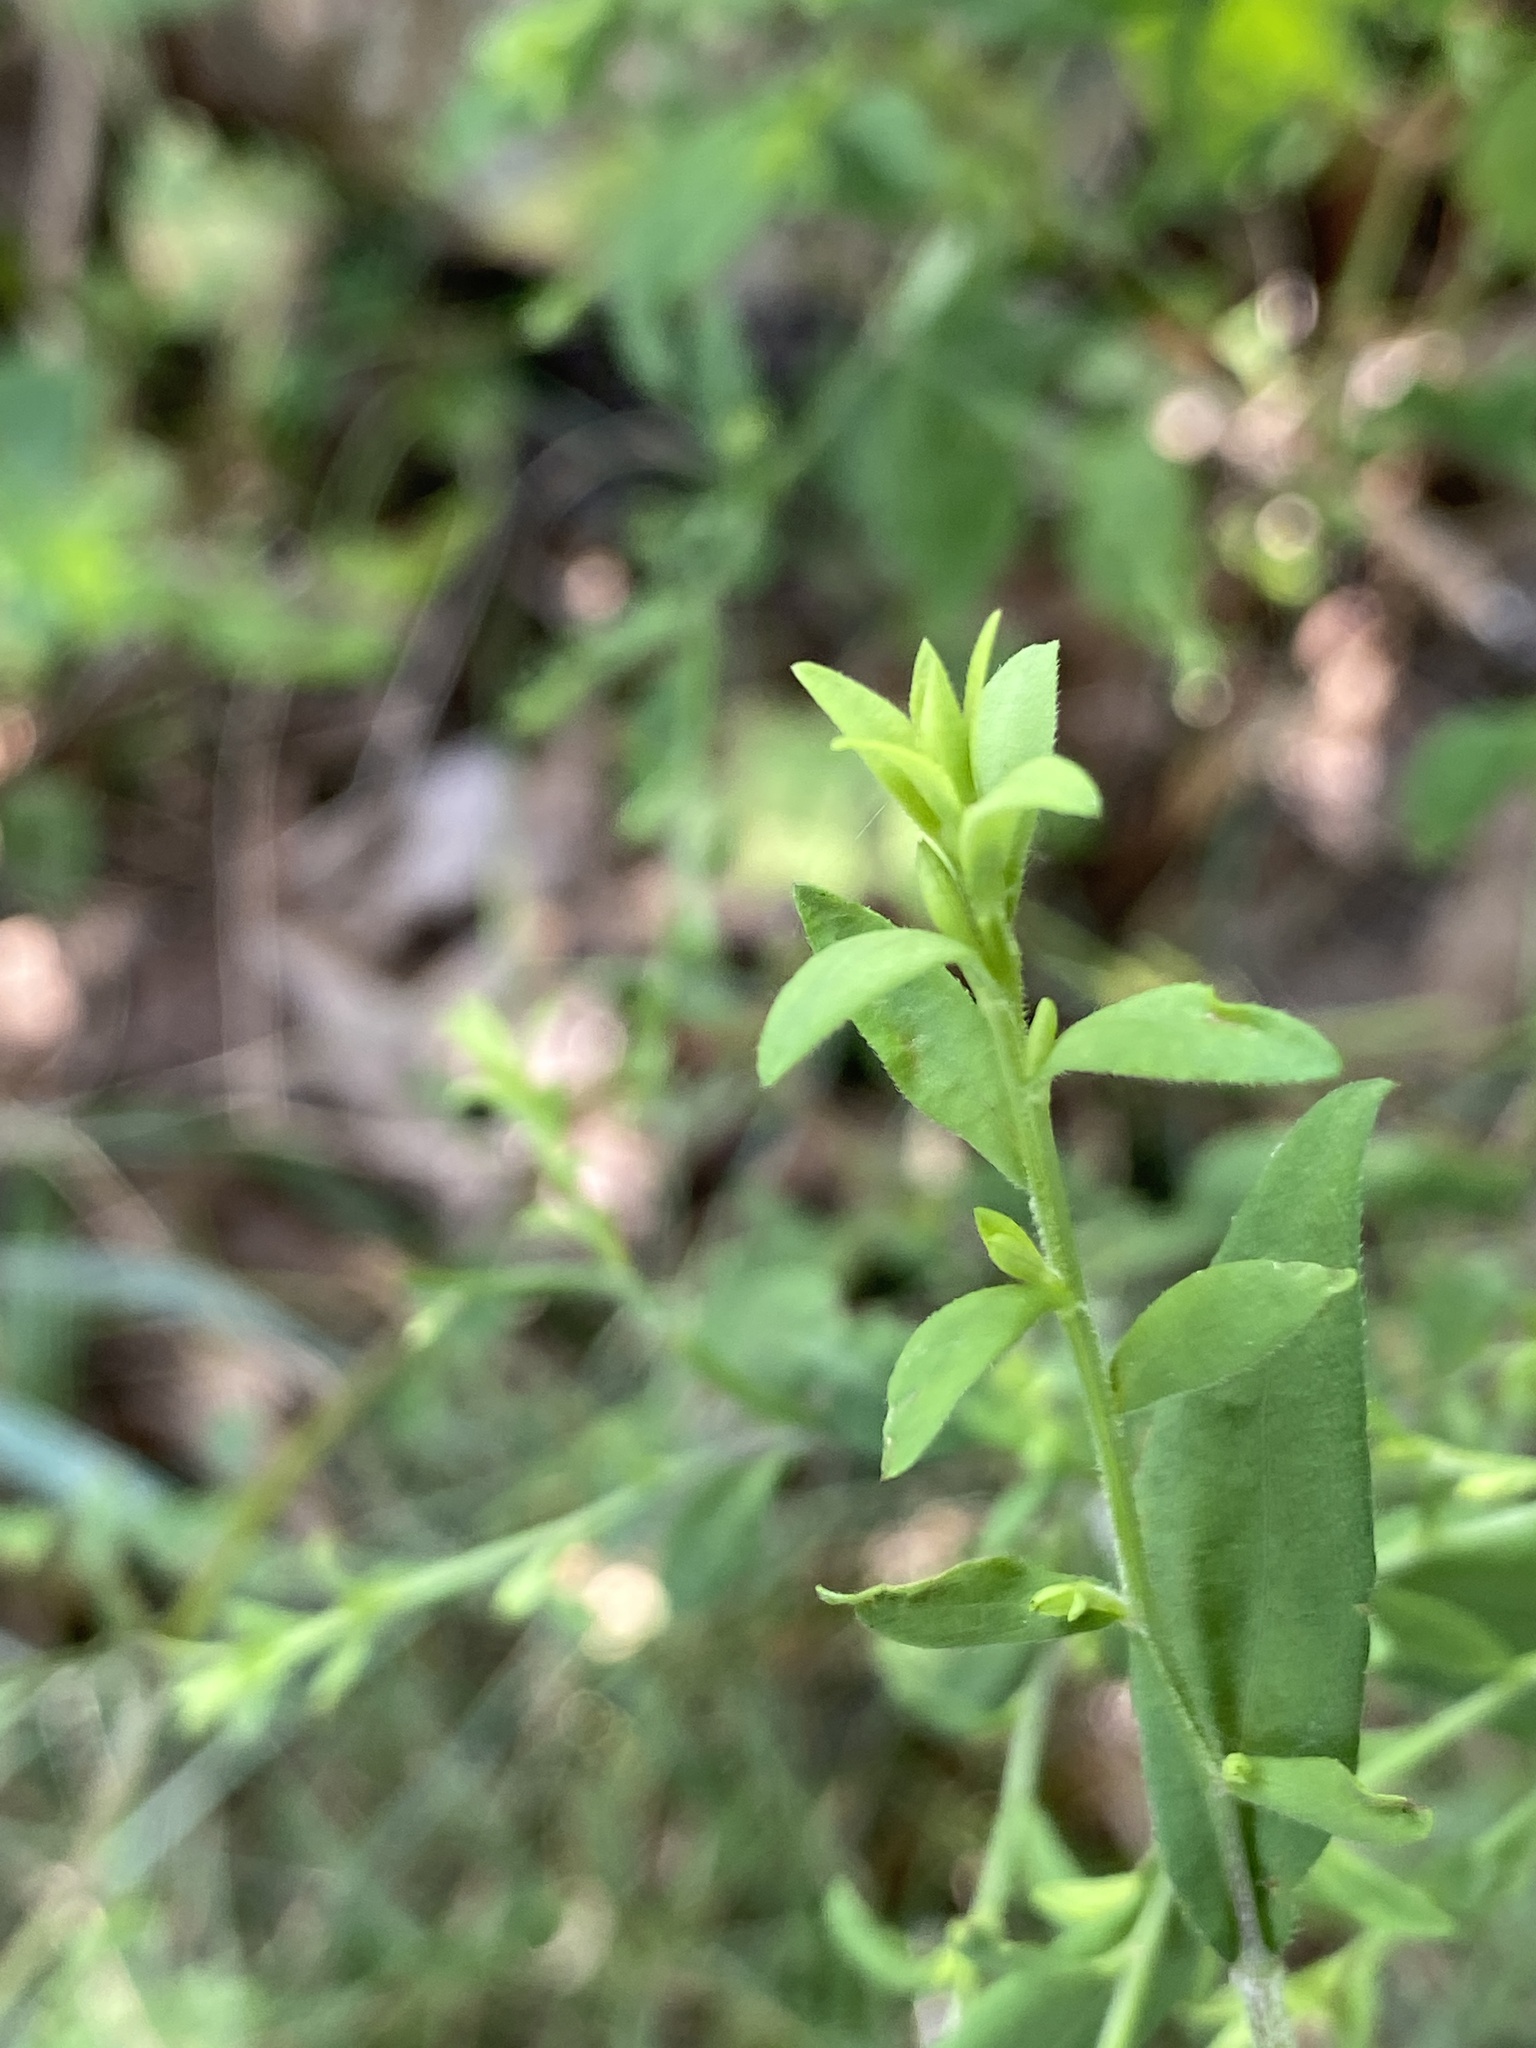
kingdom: Plantae
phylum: Tracheophyta
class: Magnoliopsida
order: Asterales
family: Asteraceae
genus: Symphyotrichum
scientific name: Symphyotrichum cordifolium
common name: Beeweed
